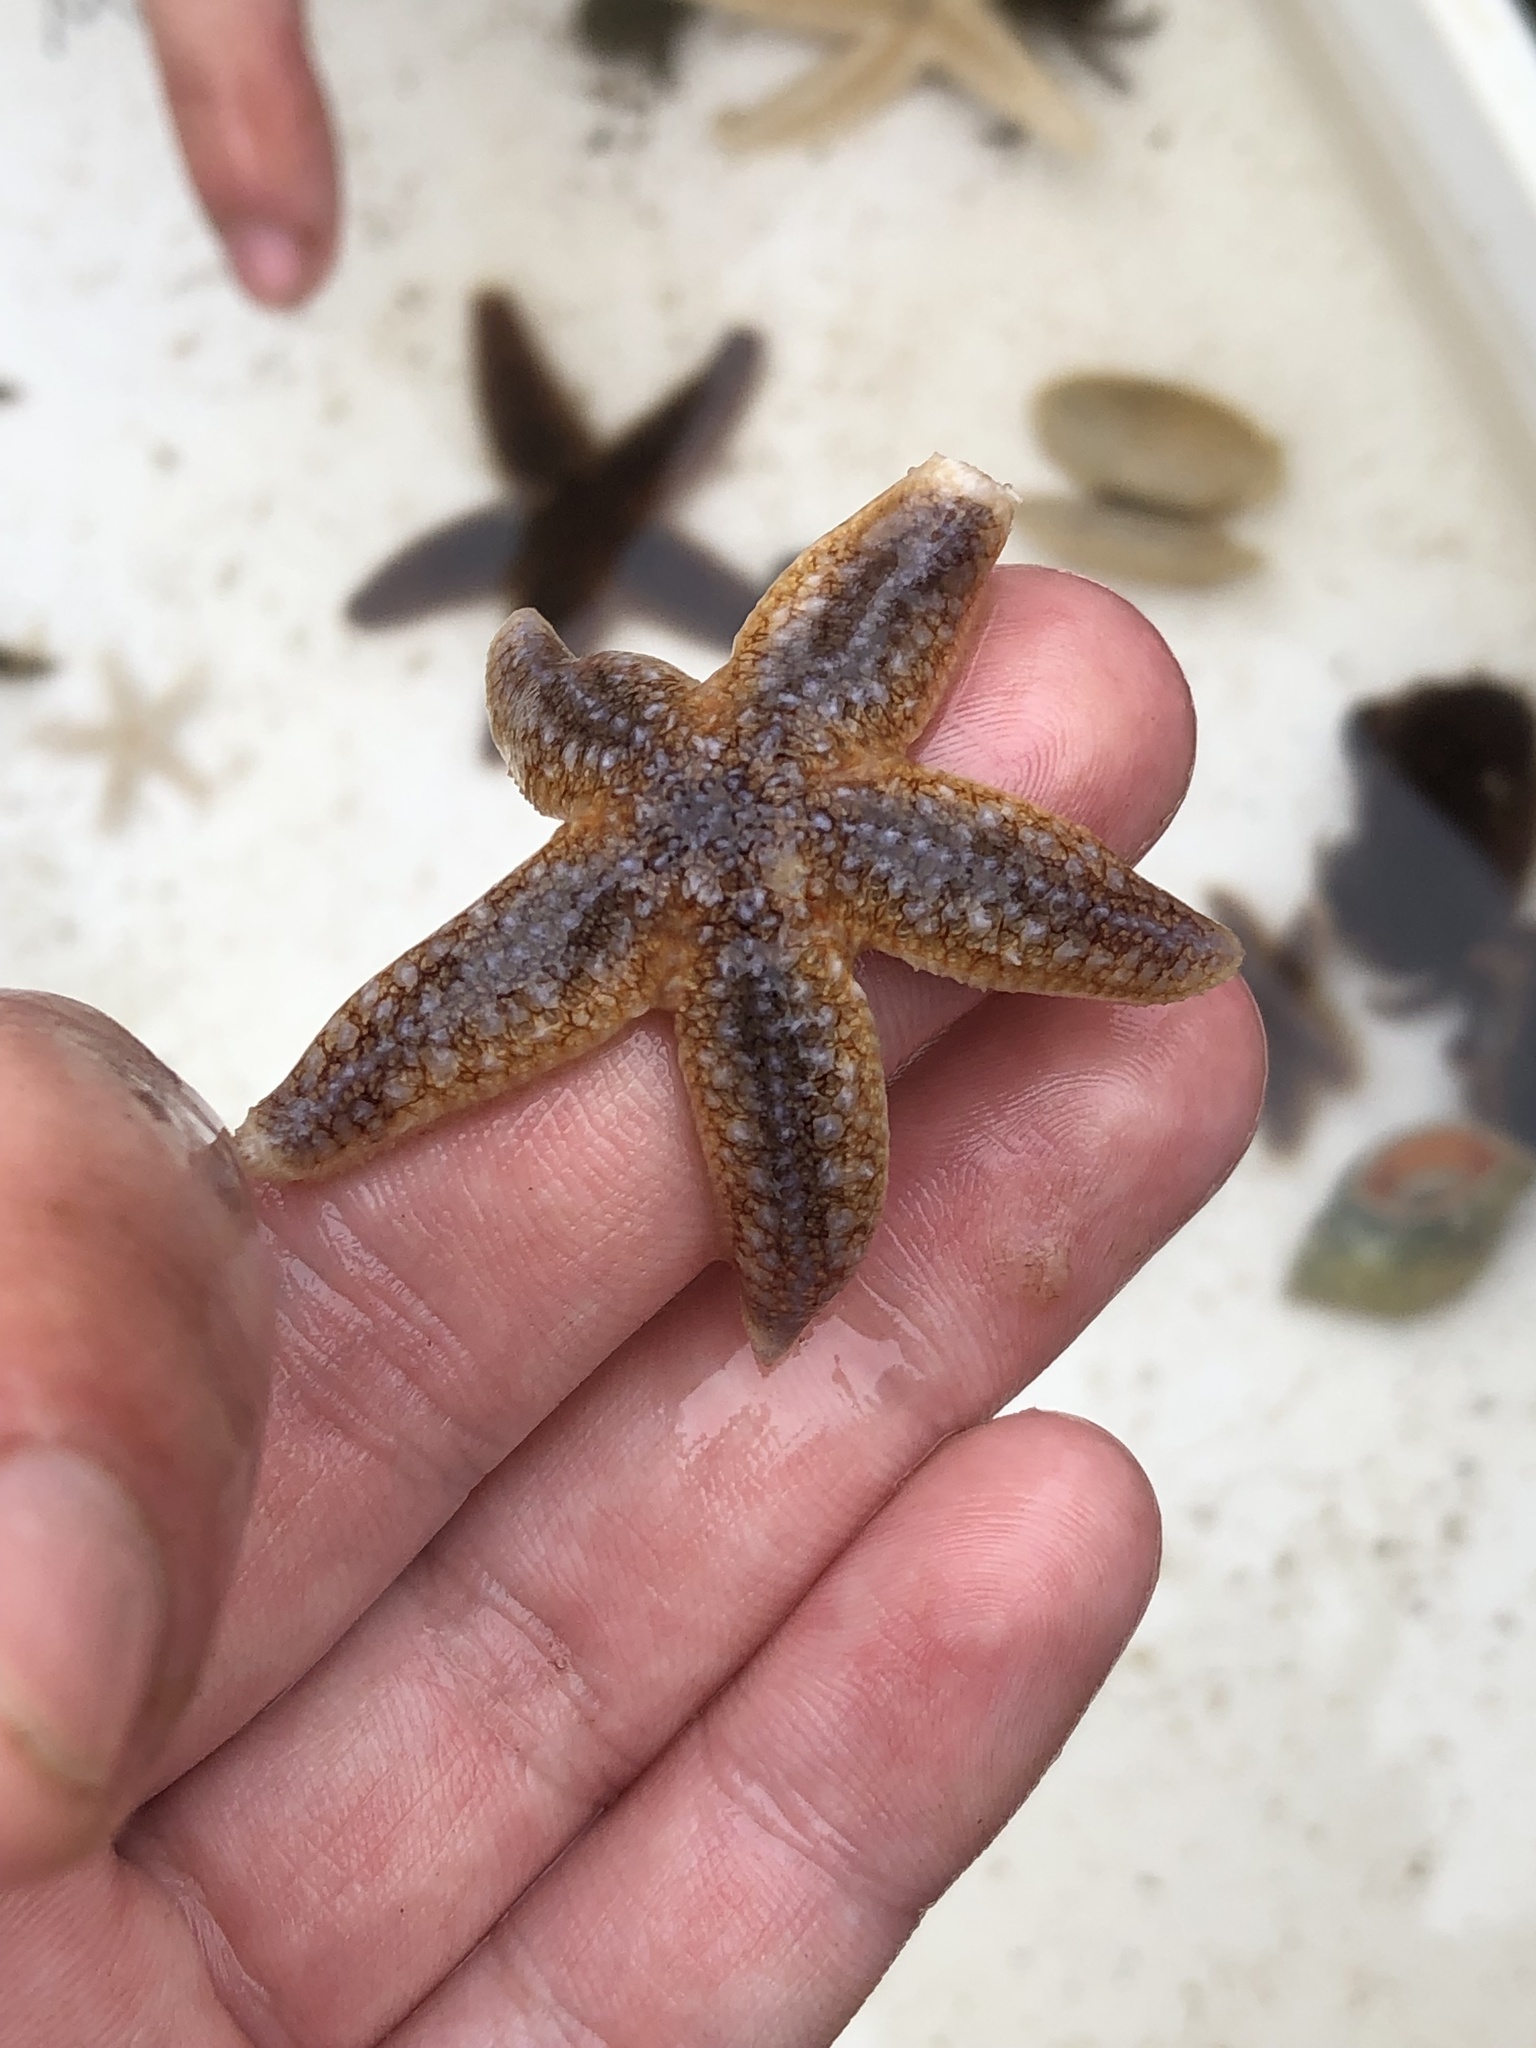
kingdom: Animalia
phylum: Echinodermata
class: Asteroidea
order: Forcipulatida
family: Asteriidae
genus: Asterias
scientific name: Asterias rubens
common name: Common starfish
